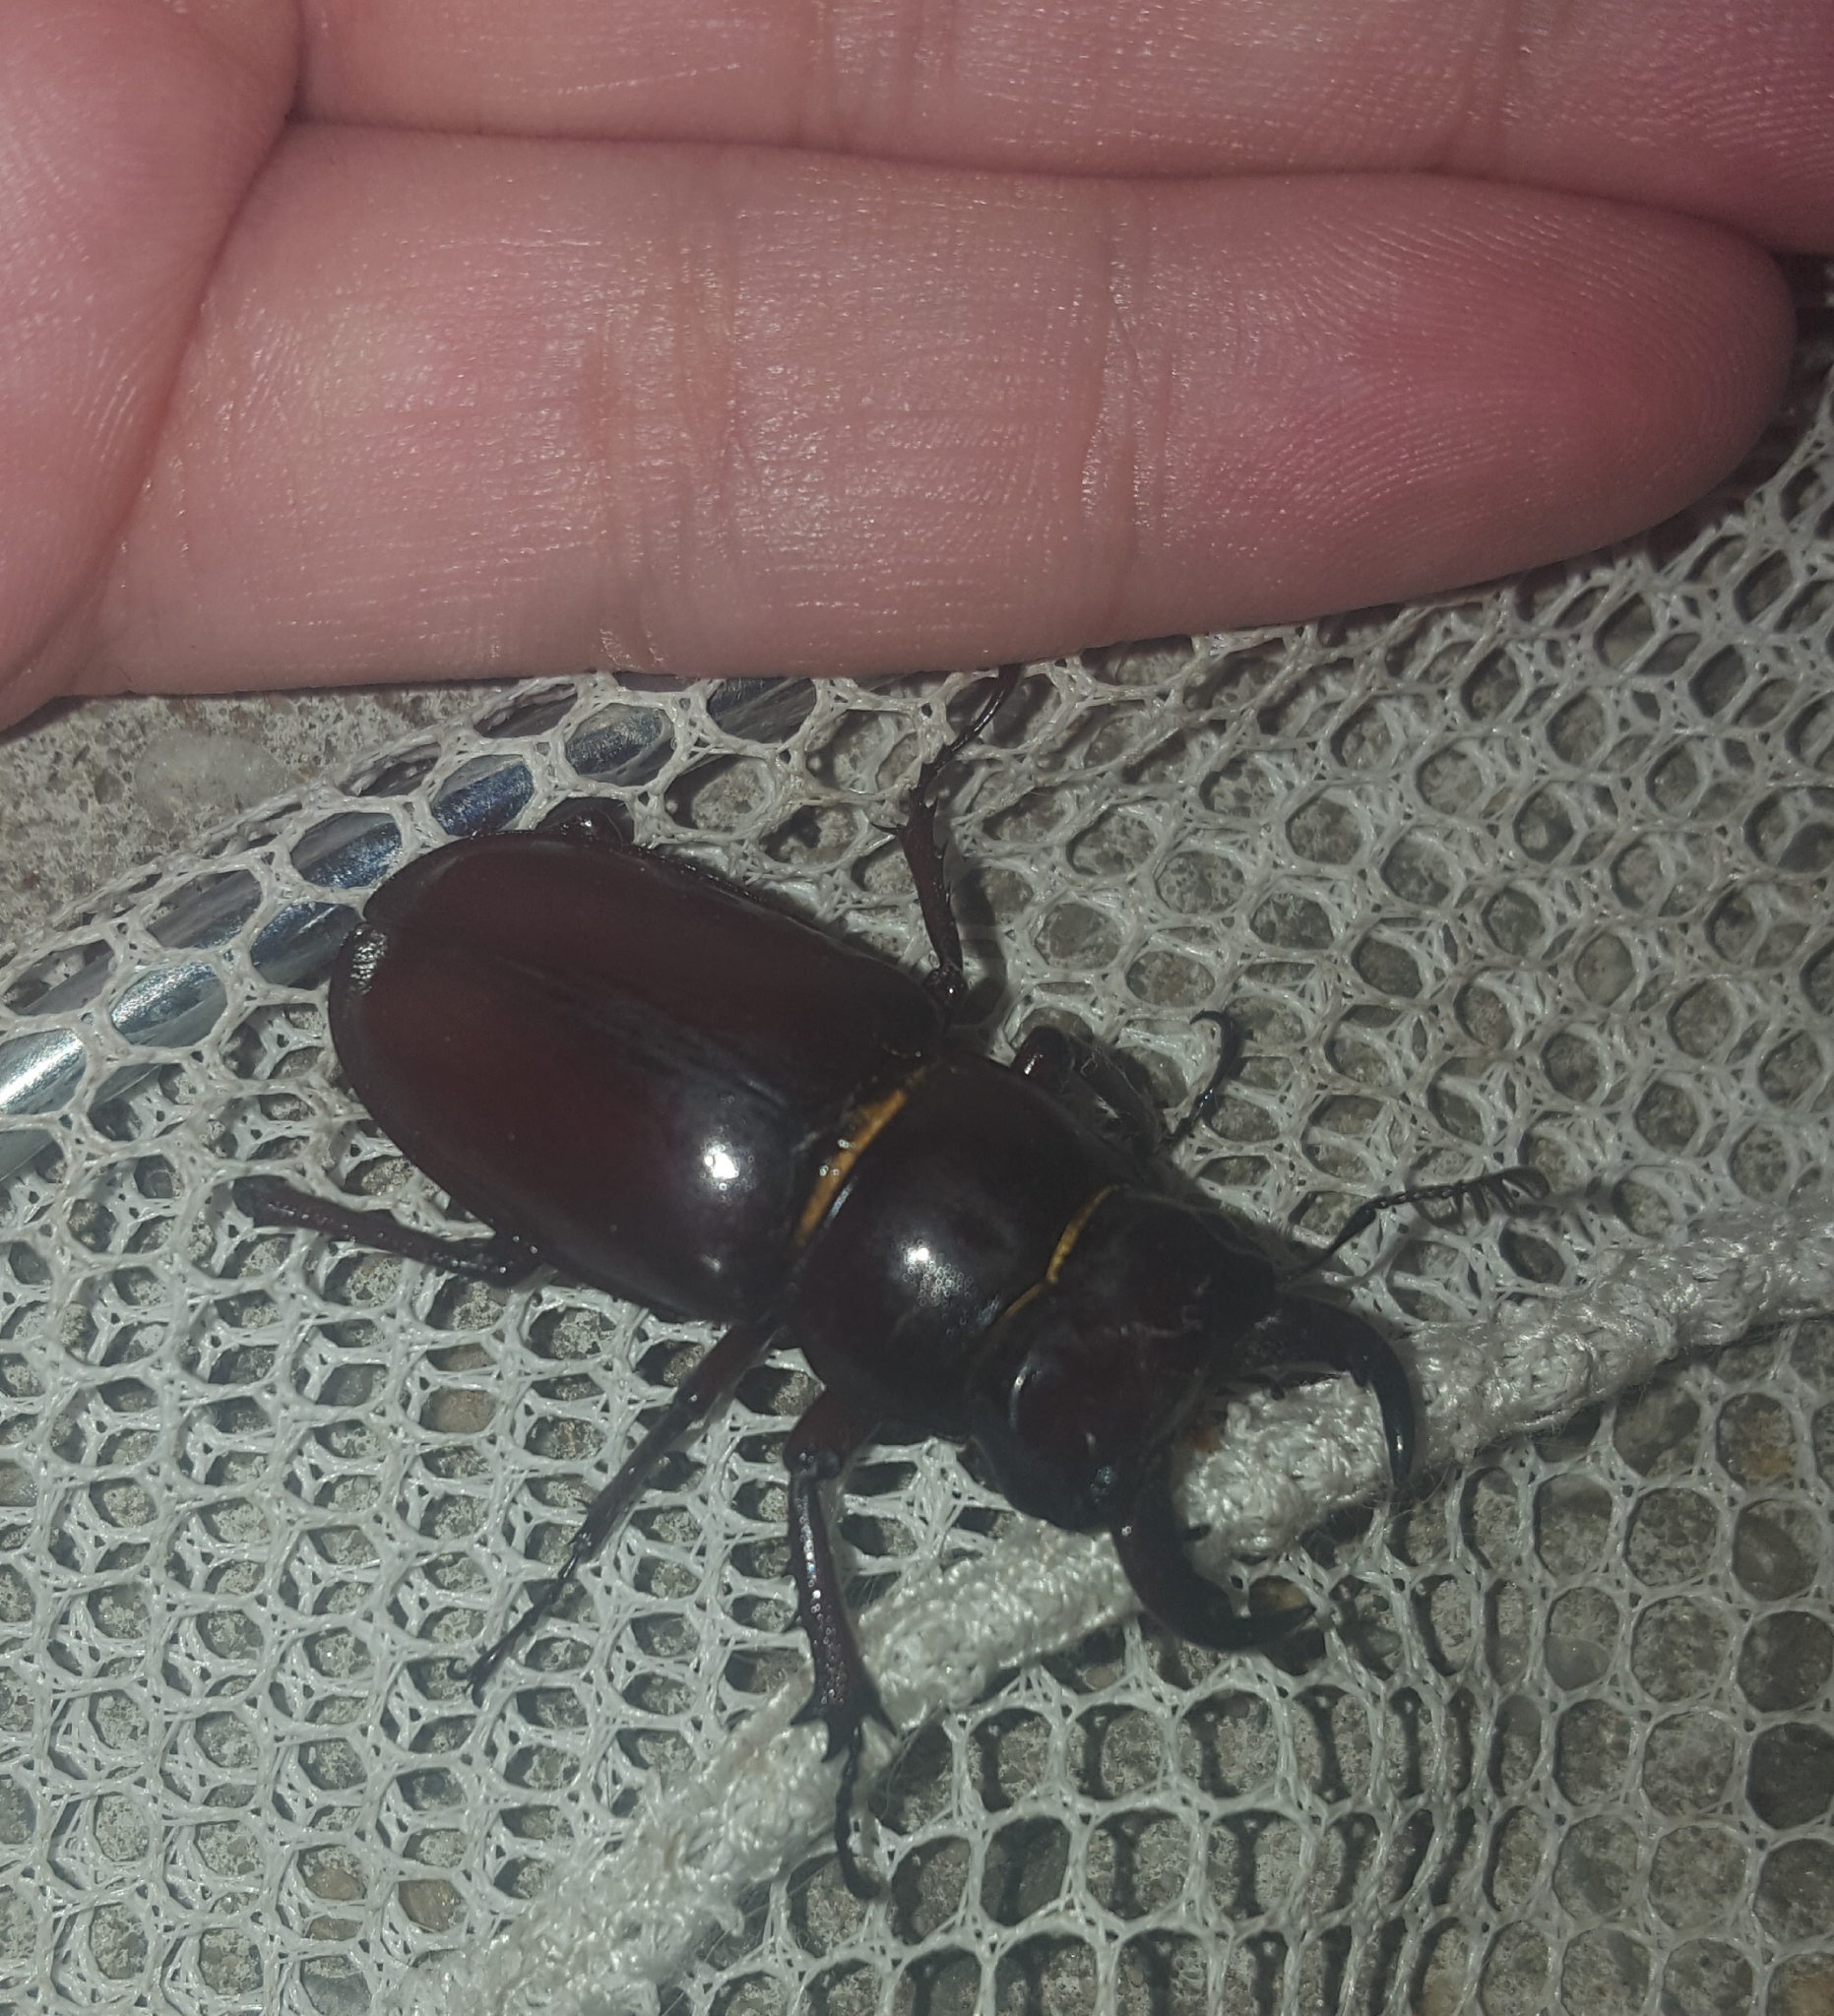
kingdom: Animalia
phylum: Arthropoda
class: Insecta
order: Coleoptera
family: Lucanidae
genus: Lucanus
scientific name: Lucanus capreolus
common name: Stag beetle
